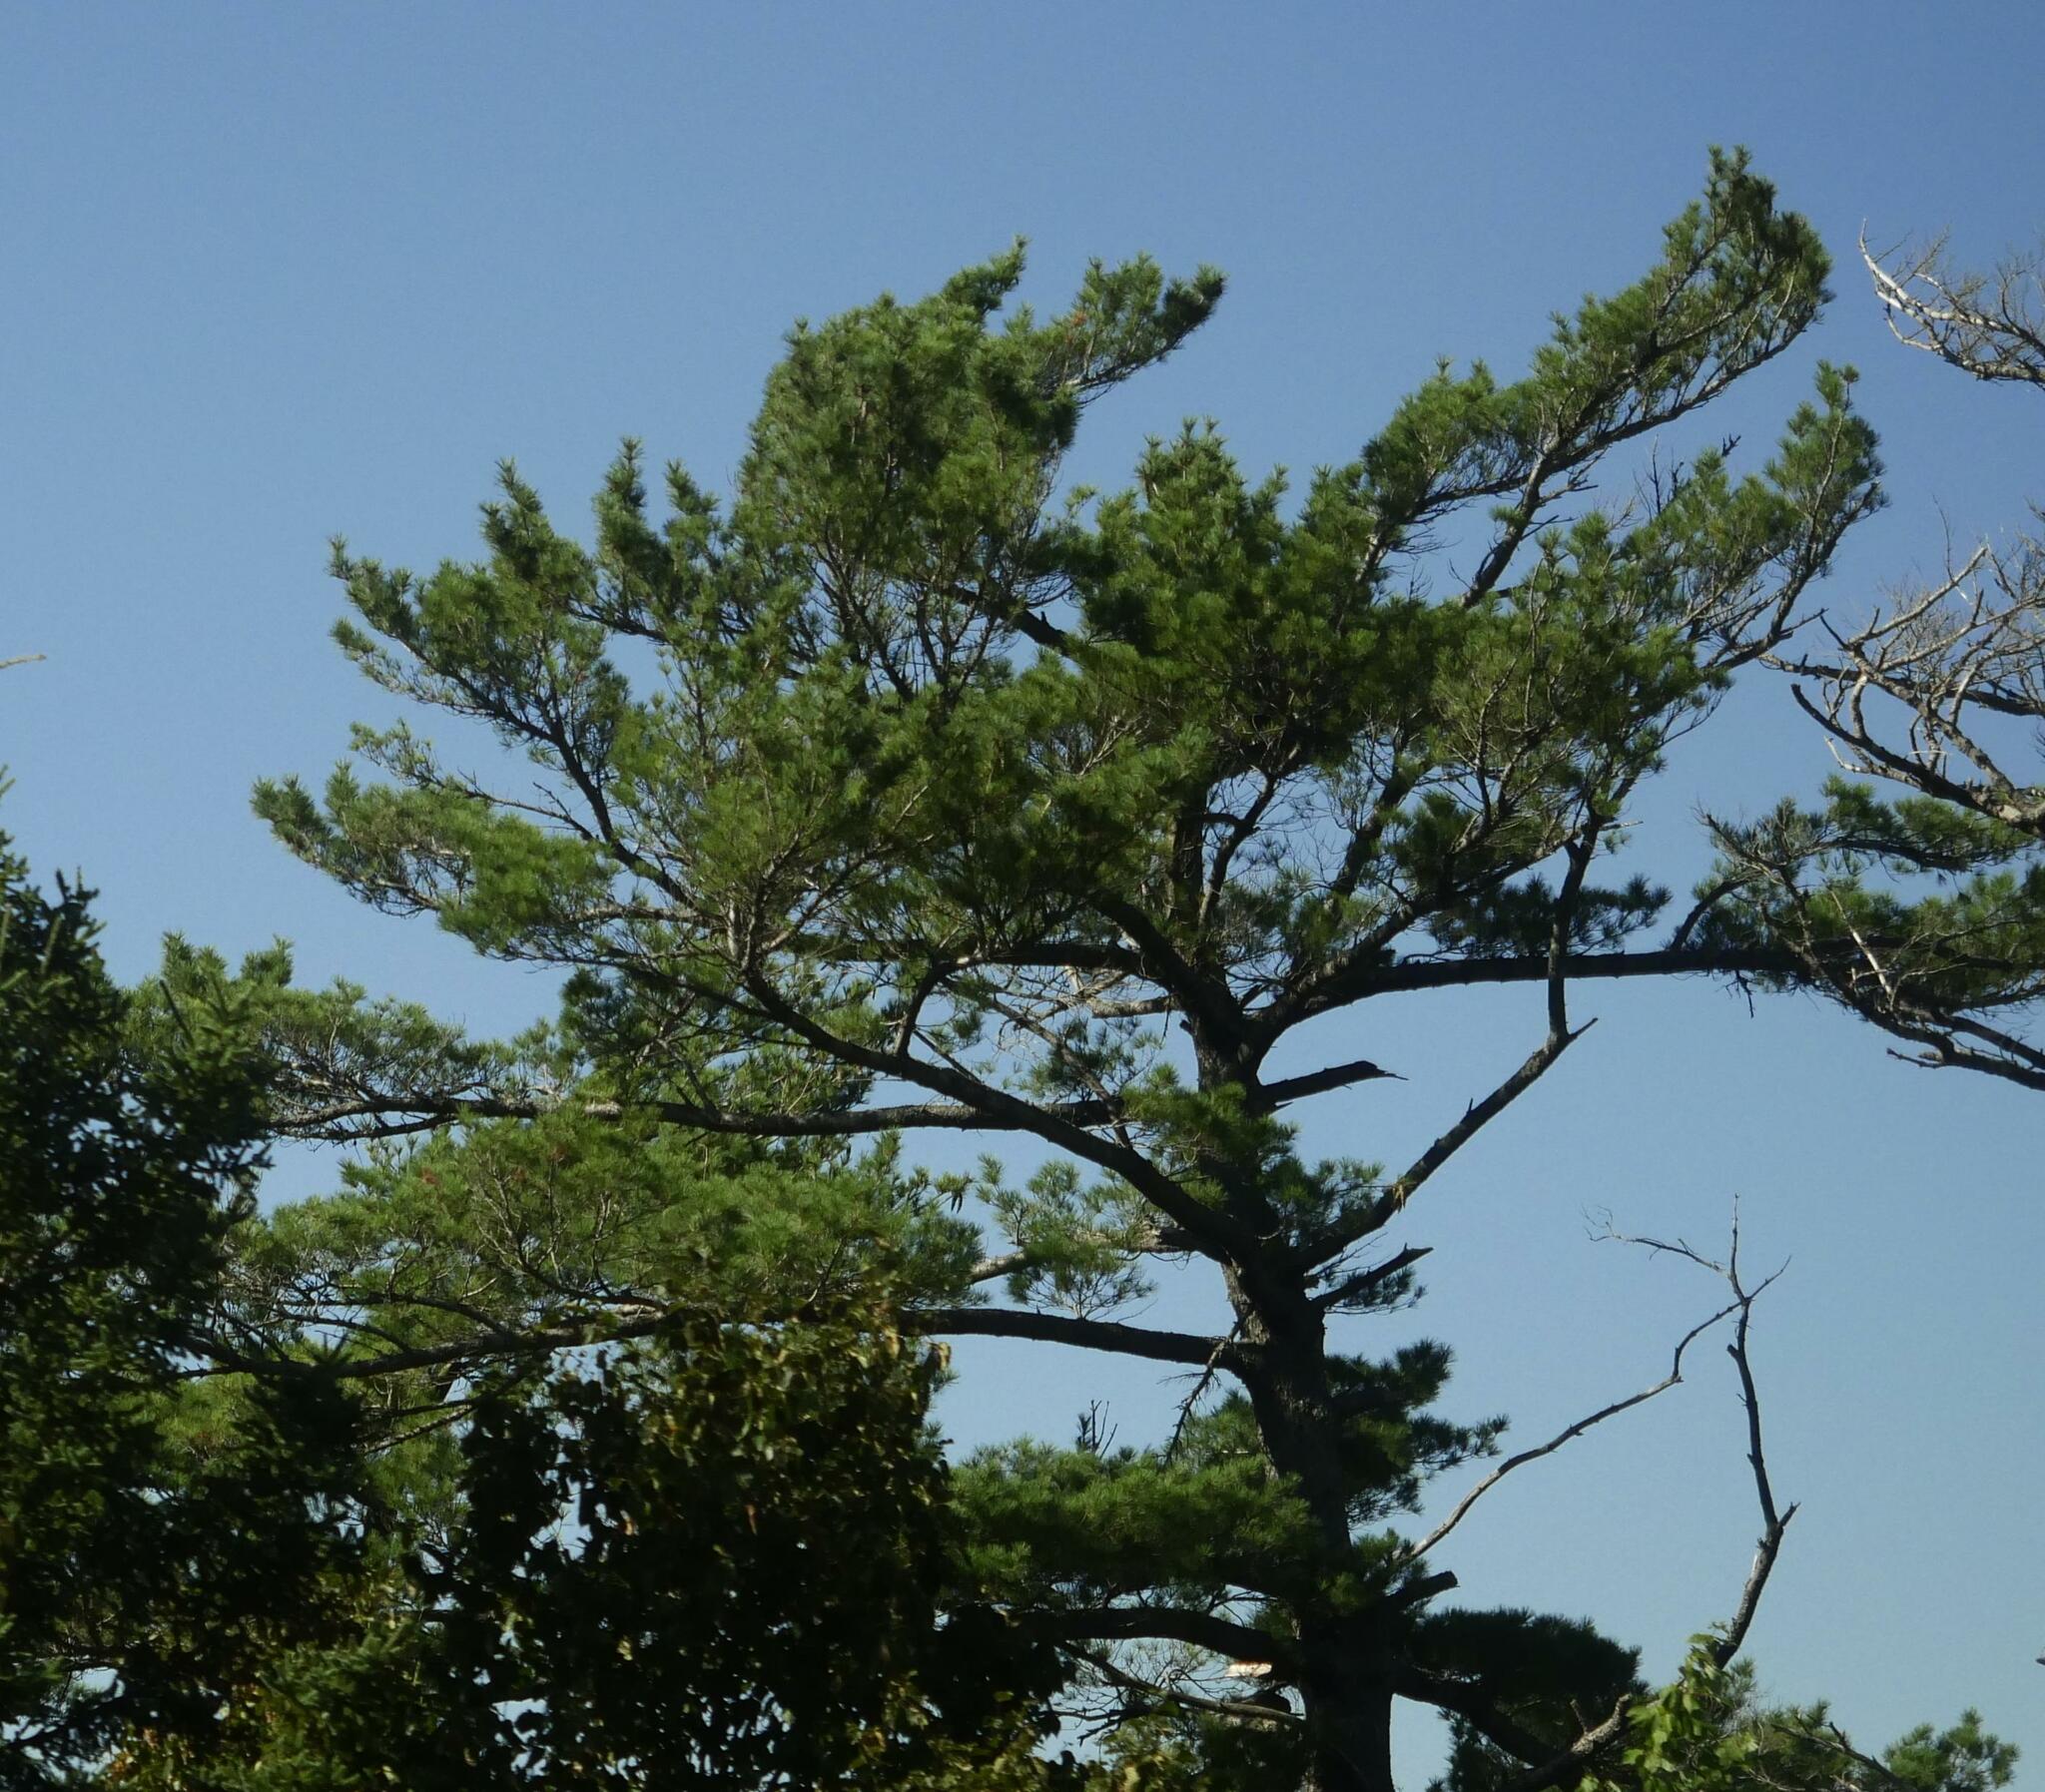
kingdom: Plantae
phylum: Tracheophyta
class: Pinopsida
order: Pinales
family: Pinaceae
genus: Pinus
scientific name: Pinus strobus
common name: Weymouth pine
